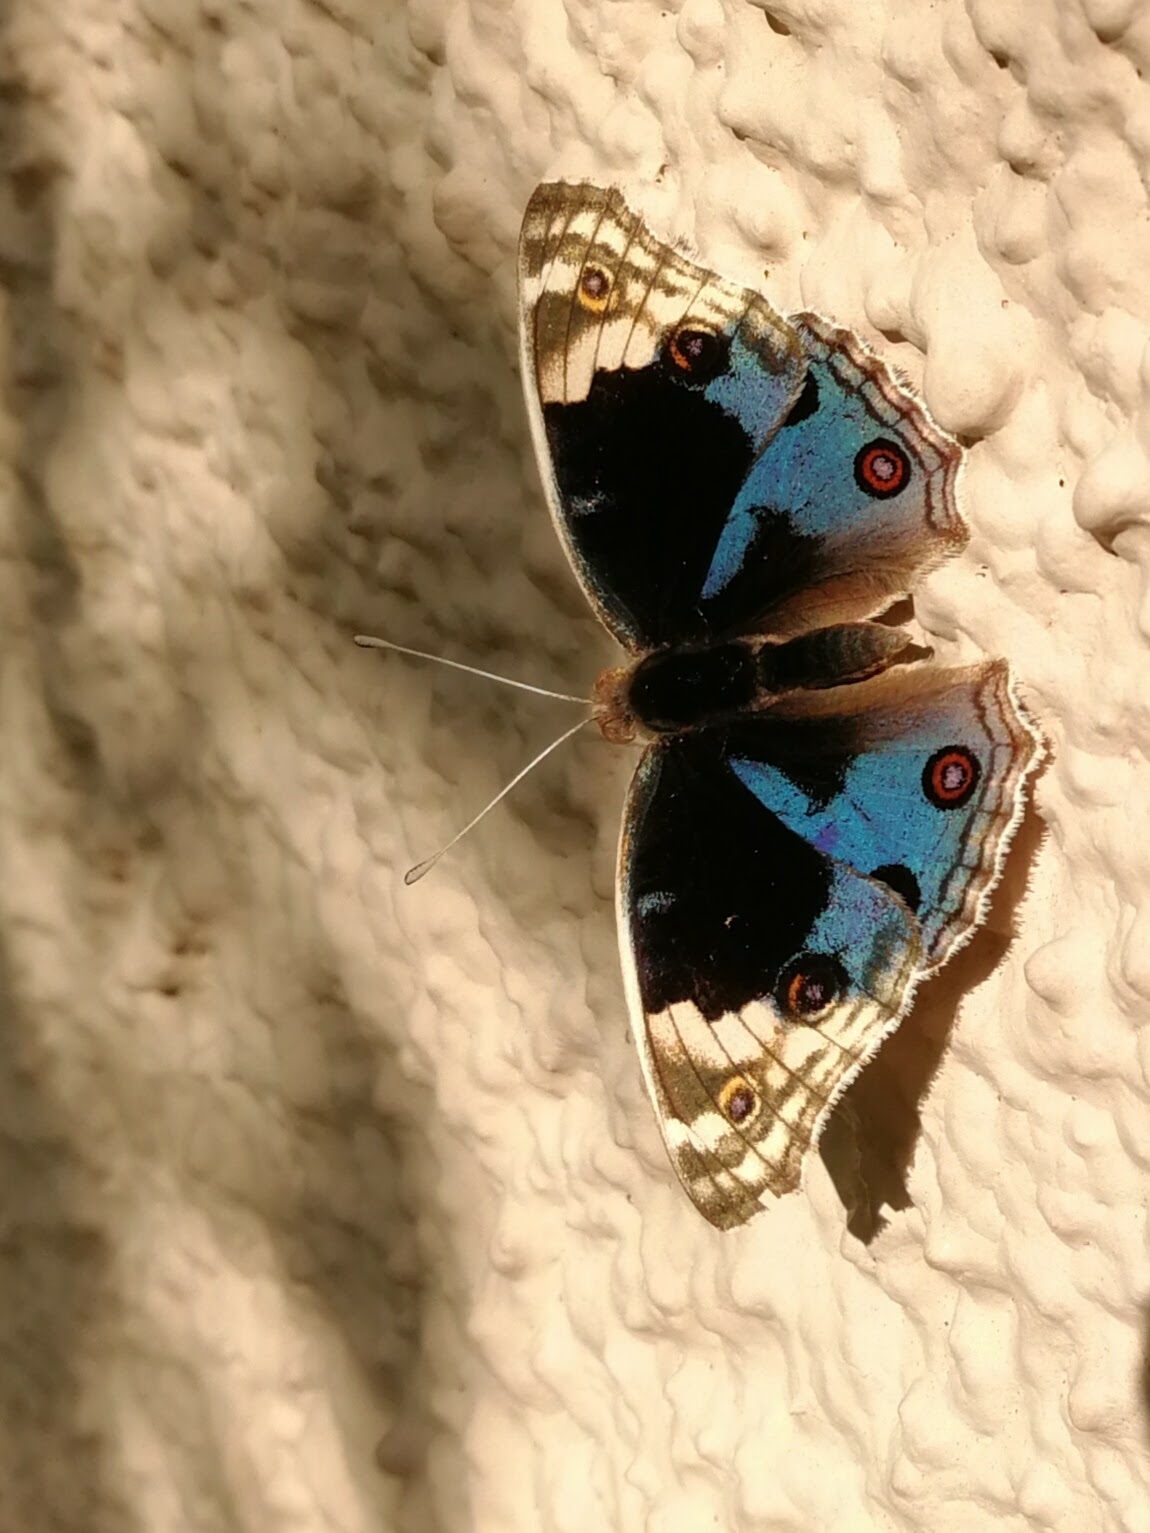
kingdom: Animalia
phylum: Arthropoda
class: Insecta
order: Lepidoptera
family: Nymphalidae
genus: Junonia
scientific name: Junonia orithya
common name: Blue pansy
